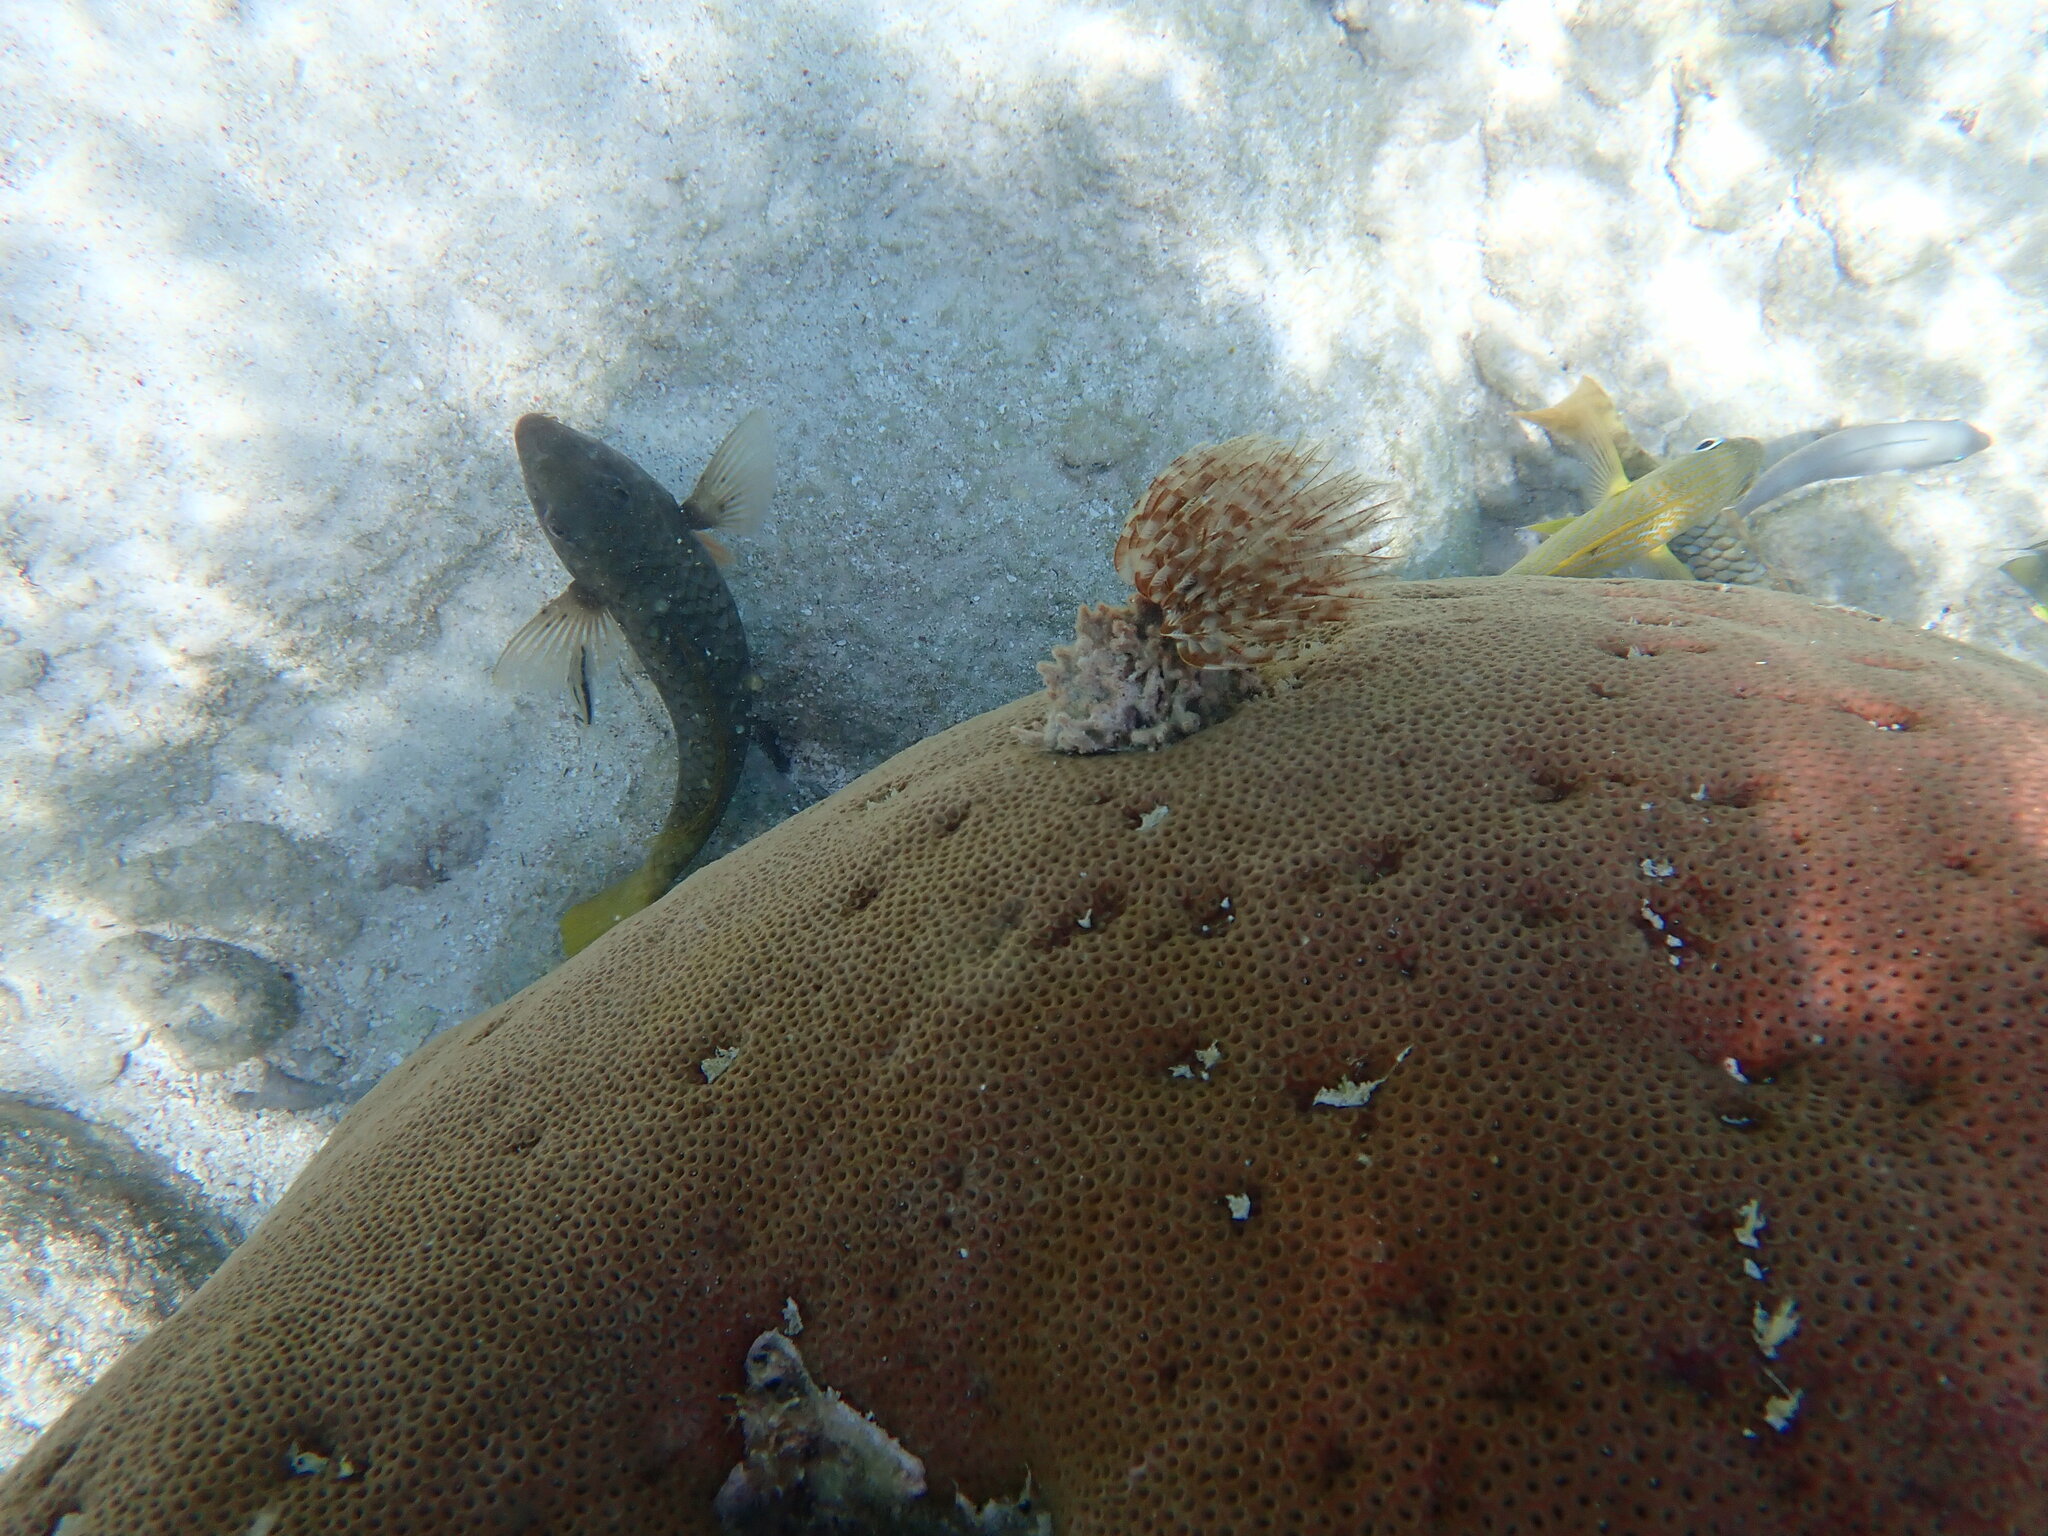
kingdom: Animalia
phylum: Annelida
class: Polychaeta
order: Sabellida
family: Sabellidae
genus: Sabellastarte
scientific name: Sabellastarte magnifica
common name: Giant feather-duster worm
